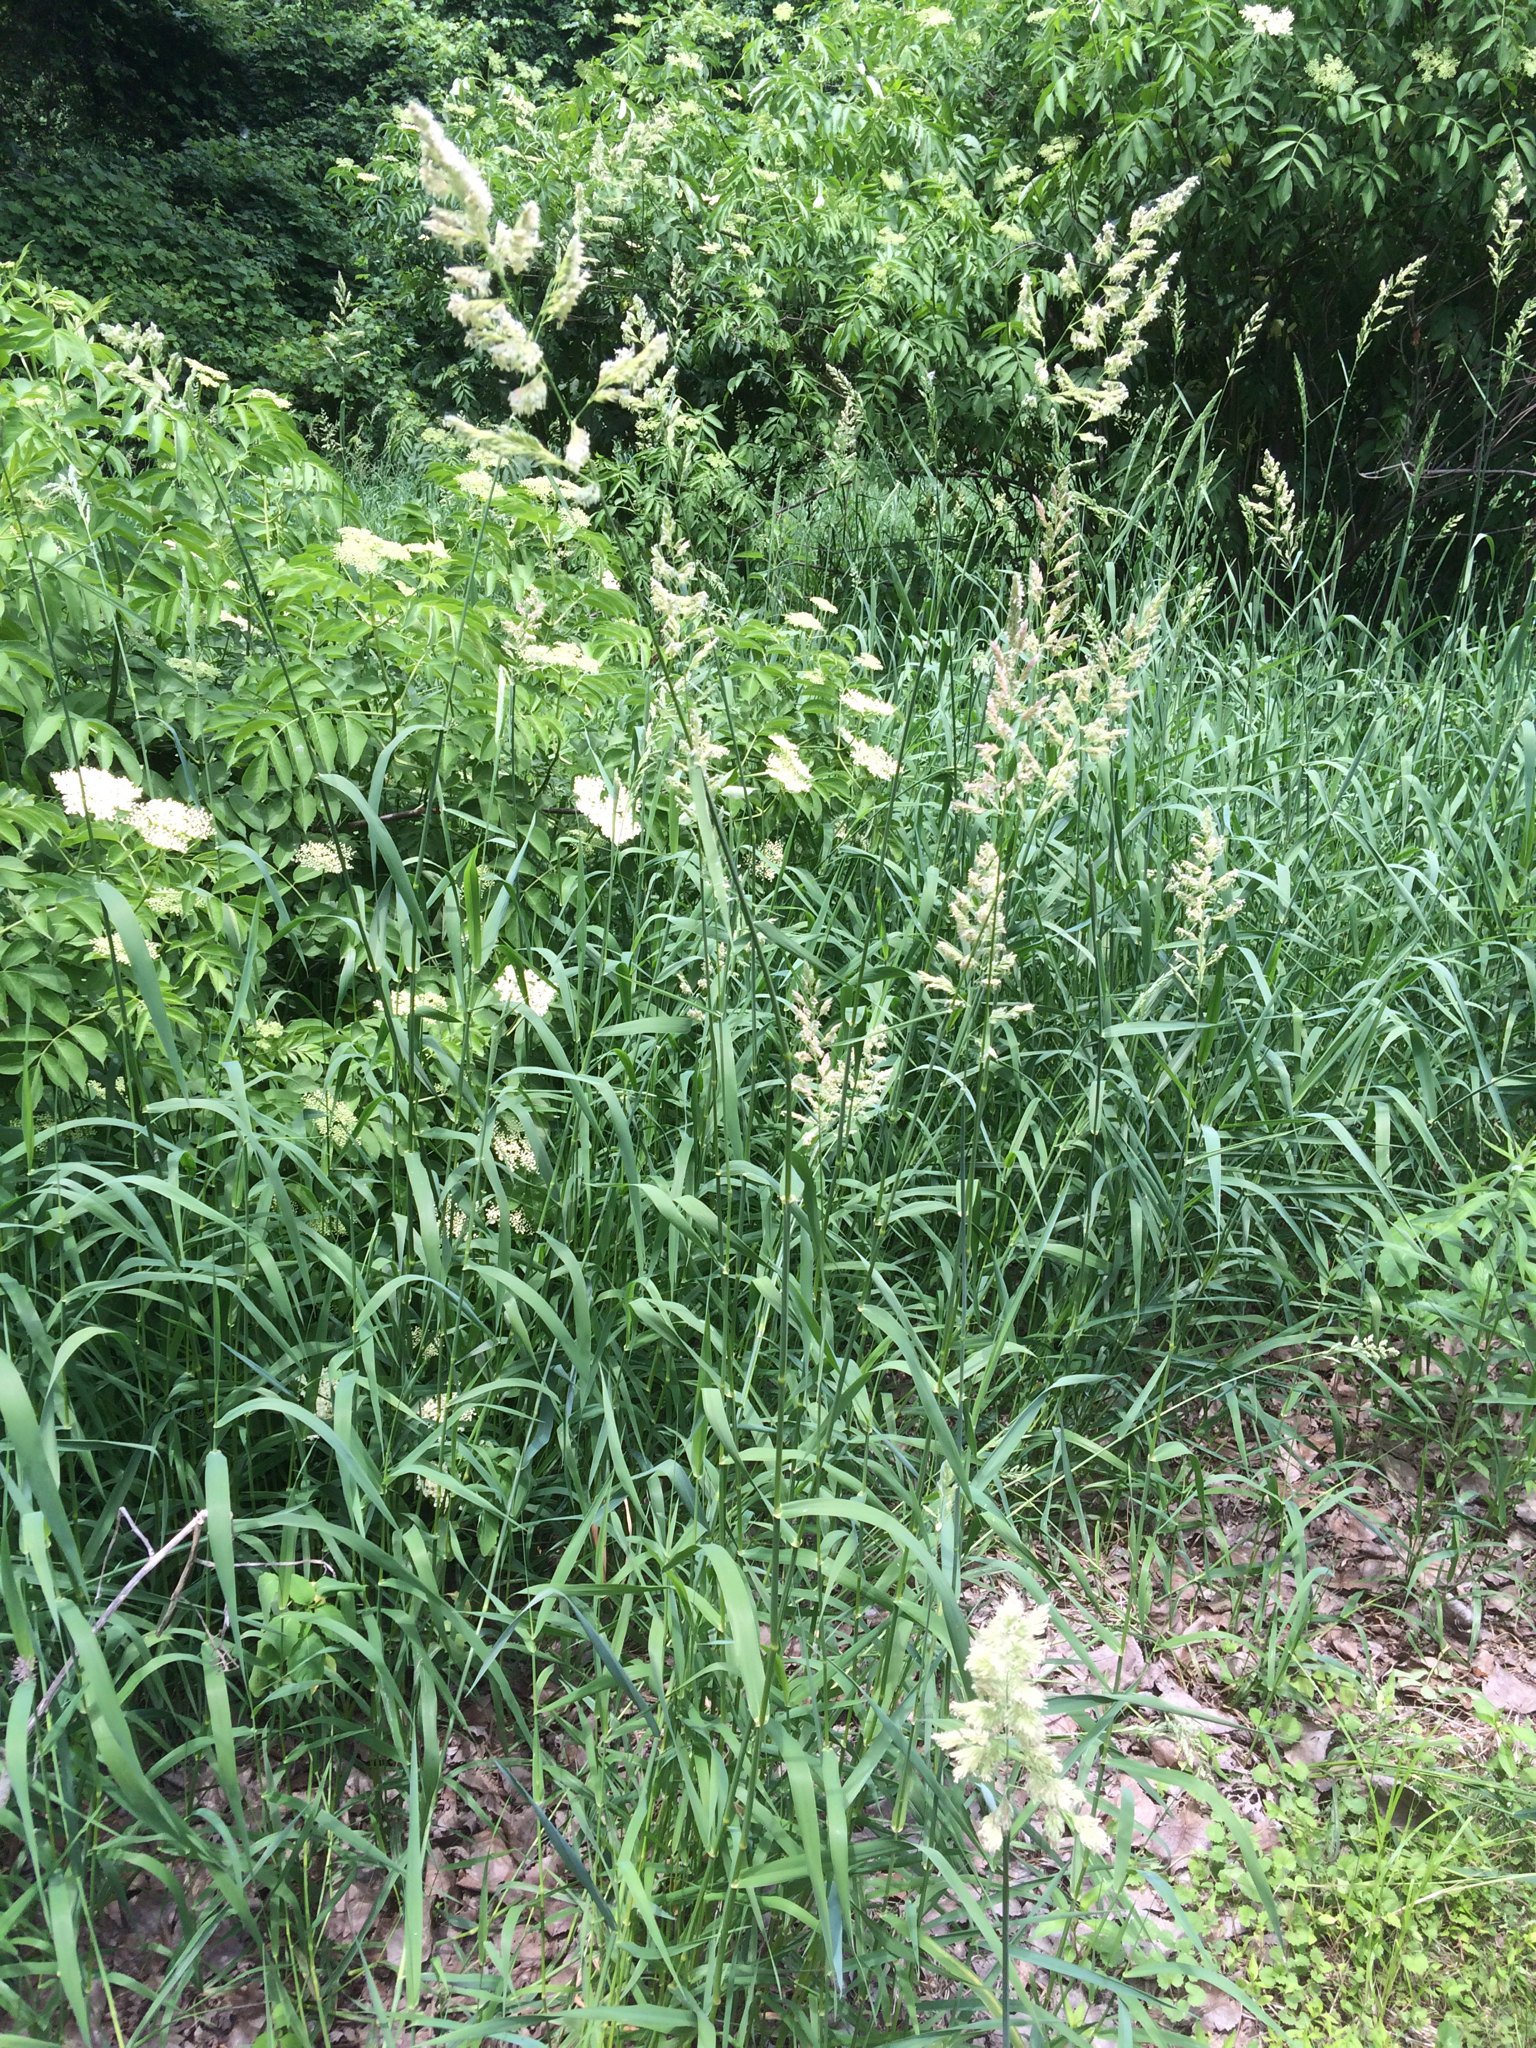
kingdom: Plantae
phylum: Tracheophyta
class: Liliopsida
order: Poales
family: Poaceae
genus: Phalaris
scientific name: Phalaris arundinacea
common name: Reed canary-grass
